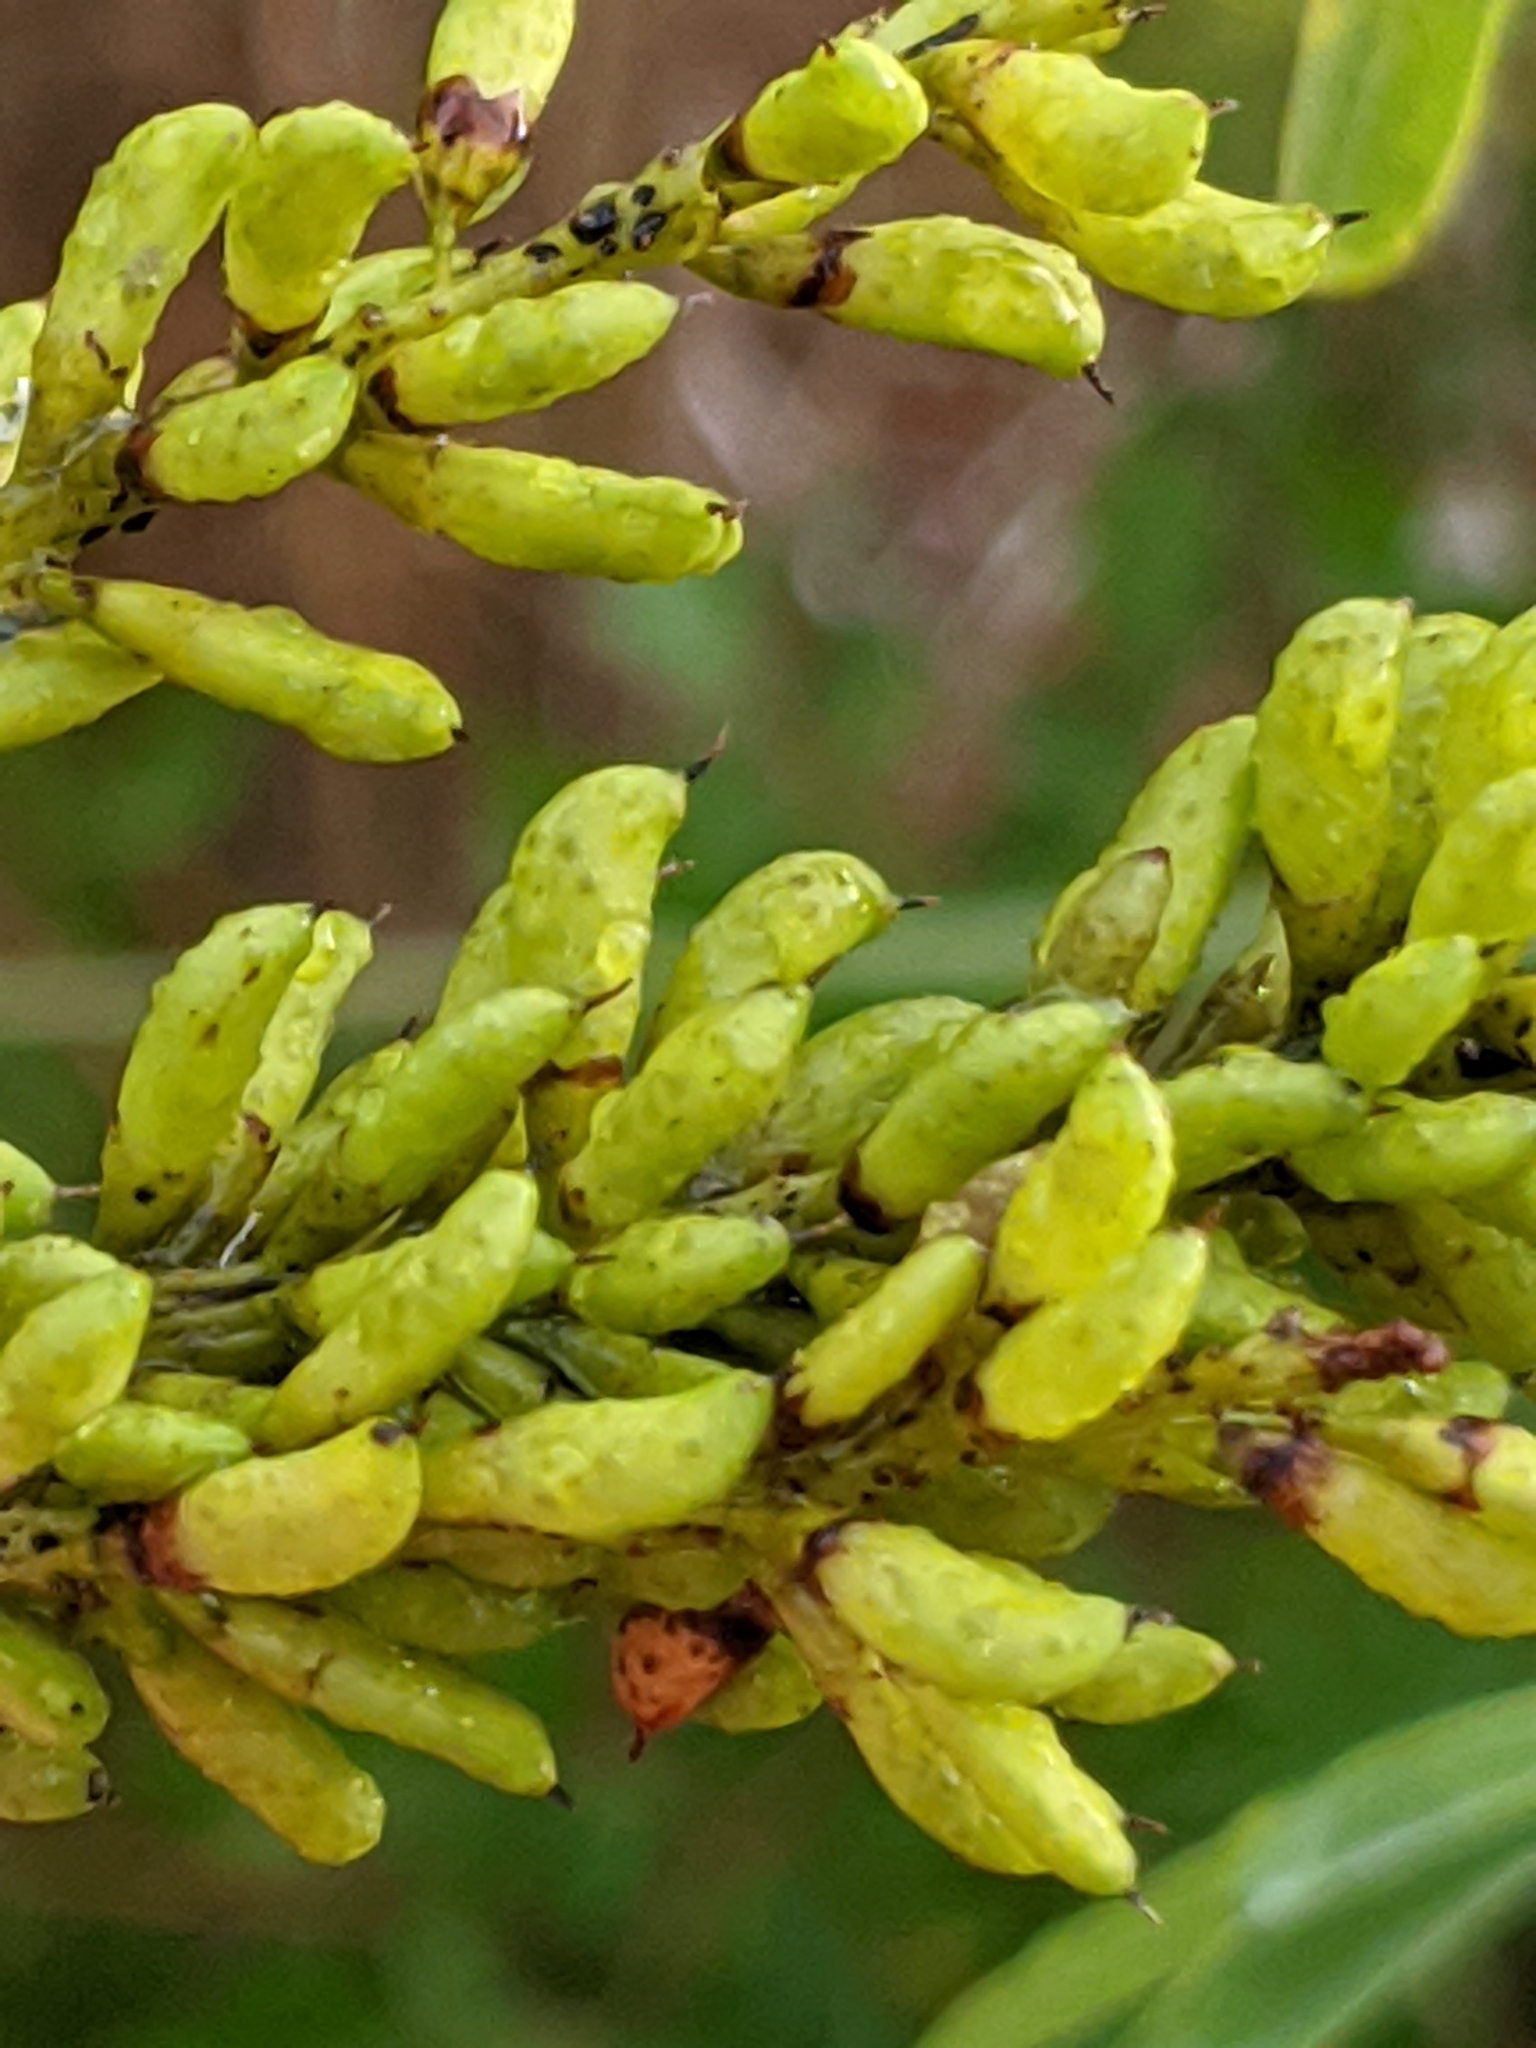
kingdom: Plantae
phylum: Tracheophyta
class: Magnoliopsida
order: Fabales
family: Fabaceae
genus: Amorpha
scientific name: Amorpha fruticosa
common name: False indigo
